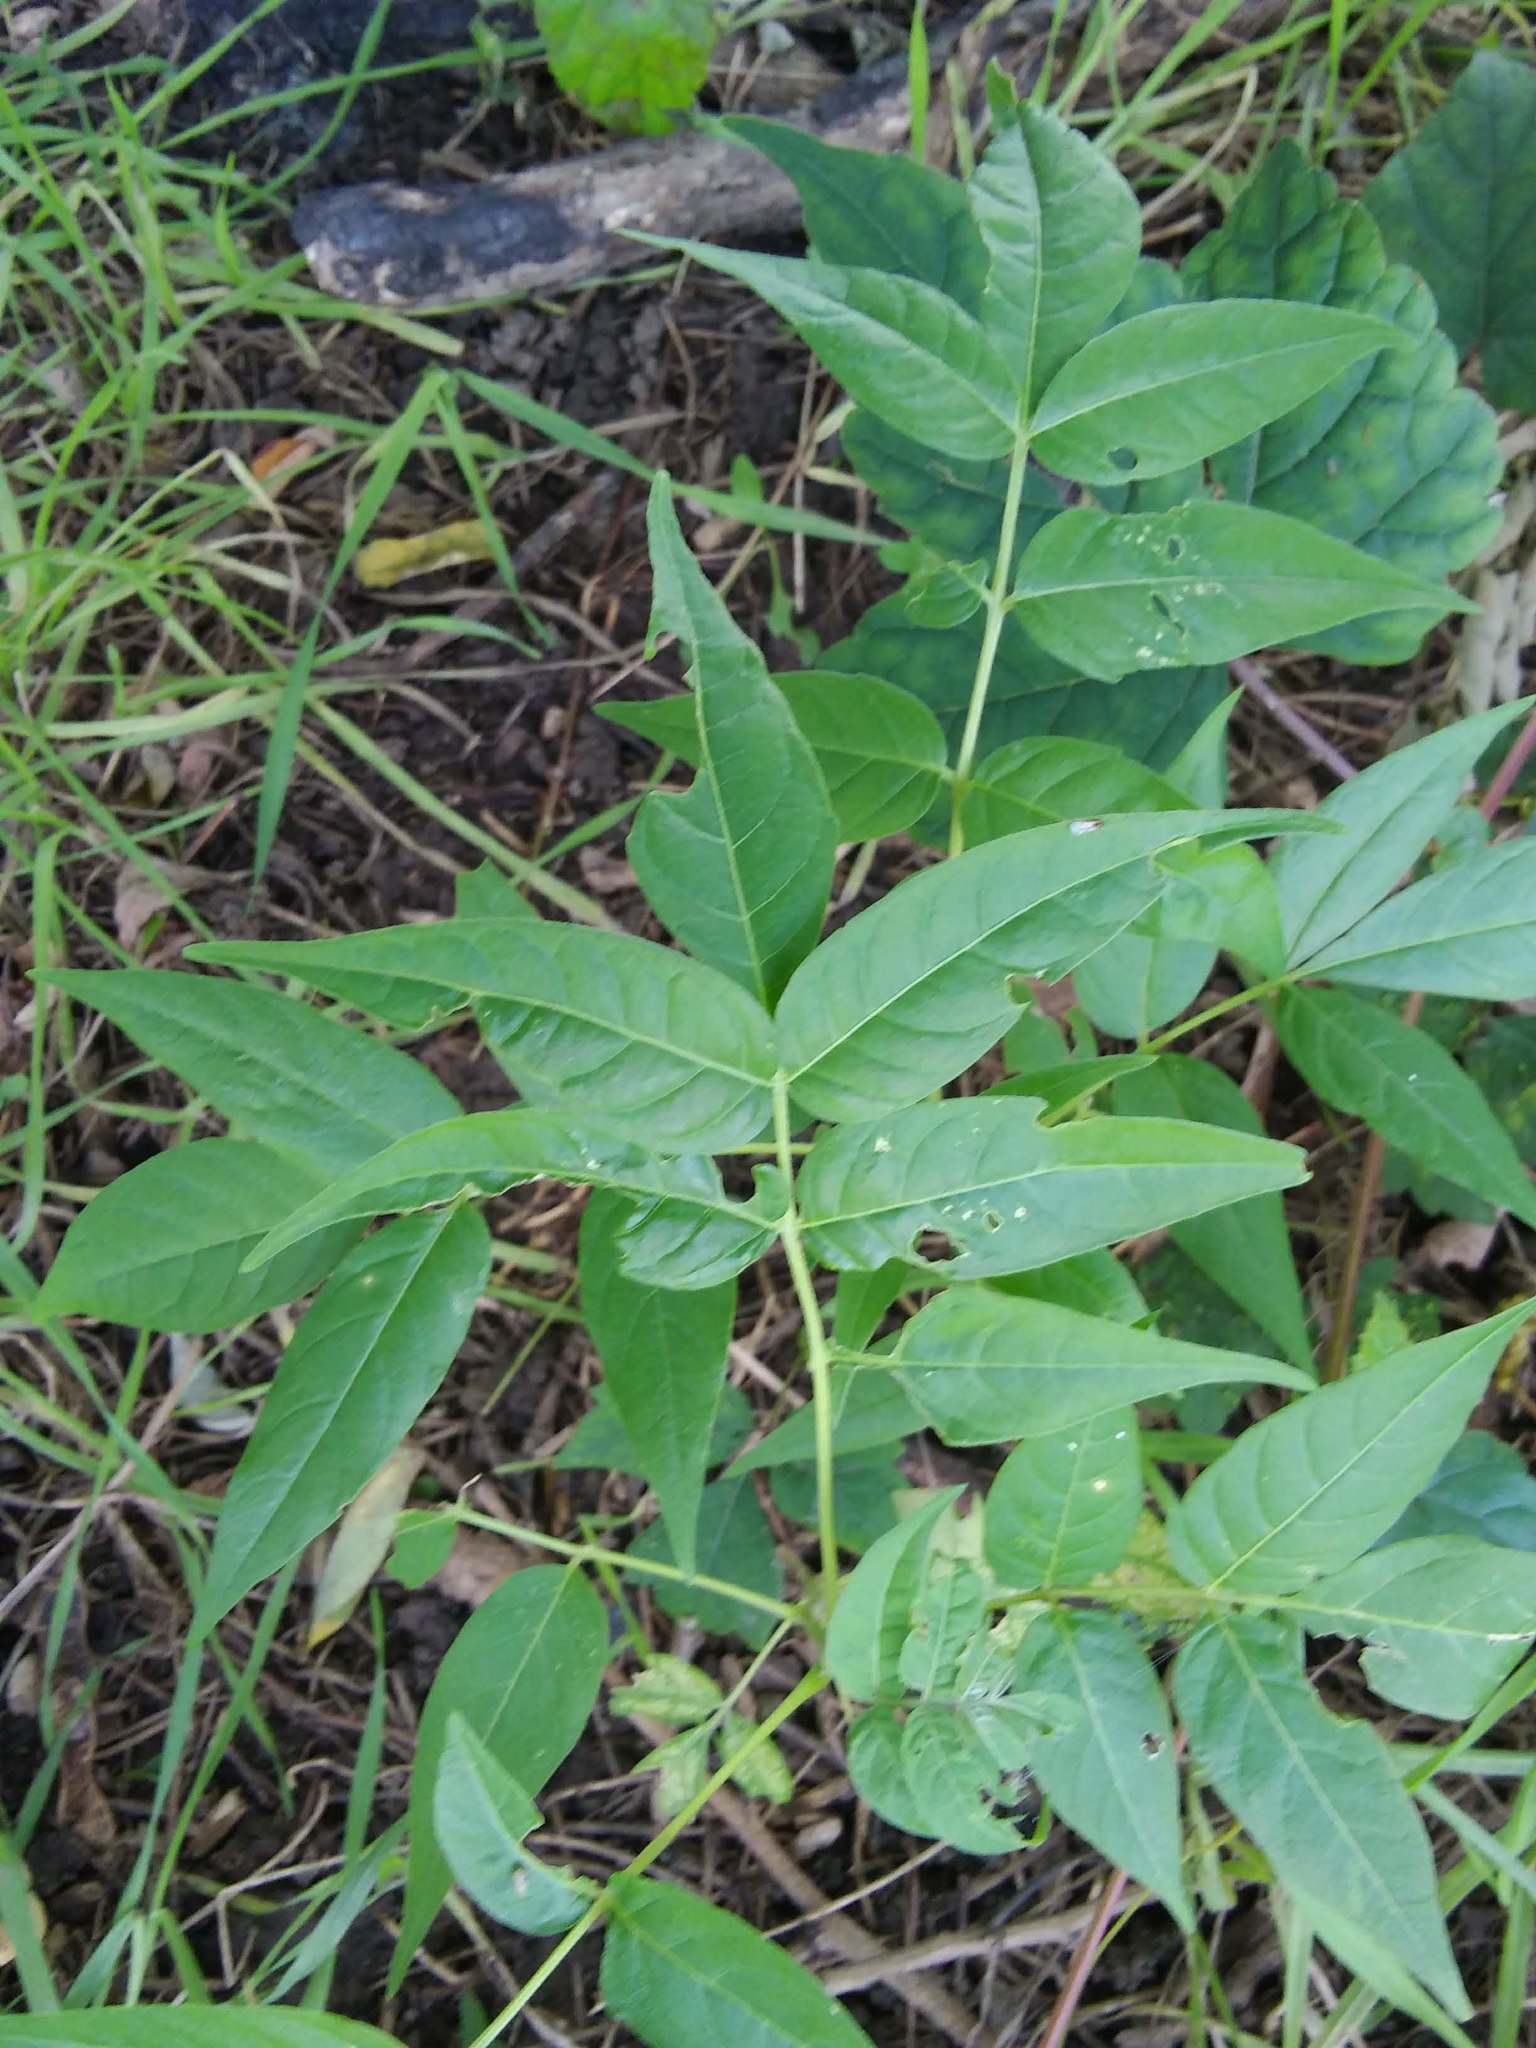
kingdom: Plantae
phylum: Tracheophyta
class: Magnoliopsida
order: Sapindales
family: Simaroubaceae
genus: Ailanthus
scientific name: Ailanthus altissima
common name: Tree-of-heaven
